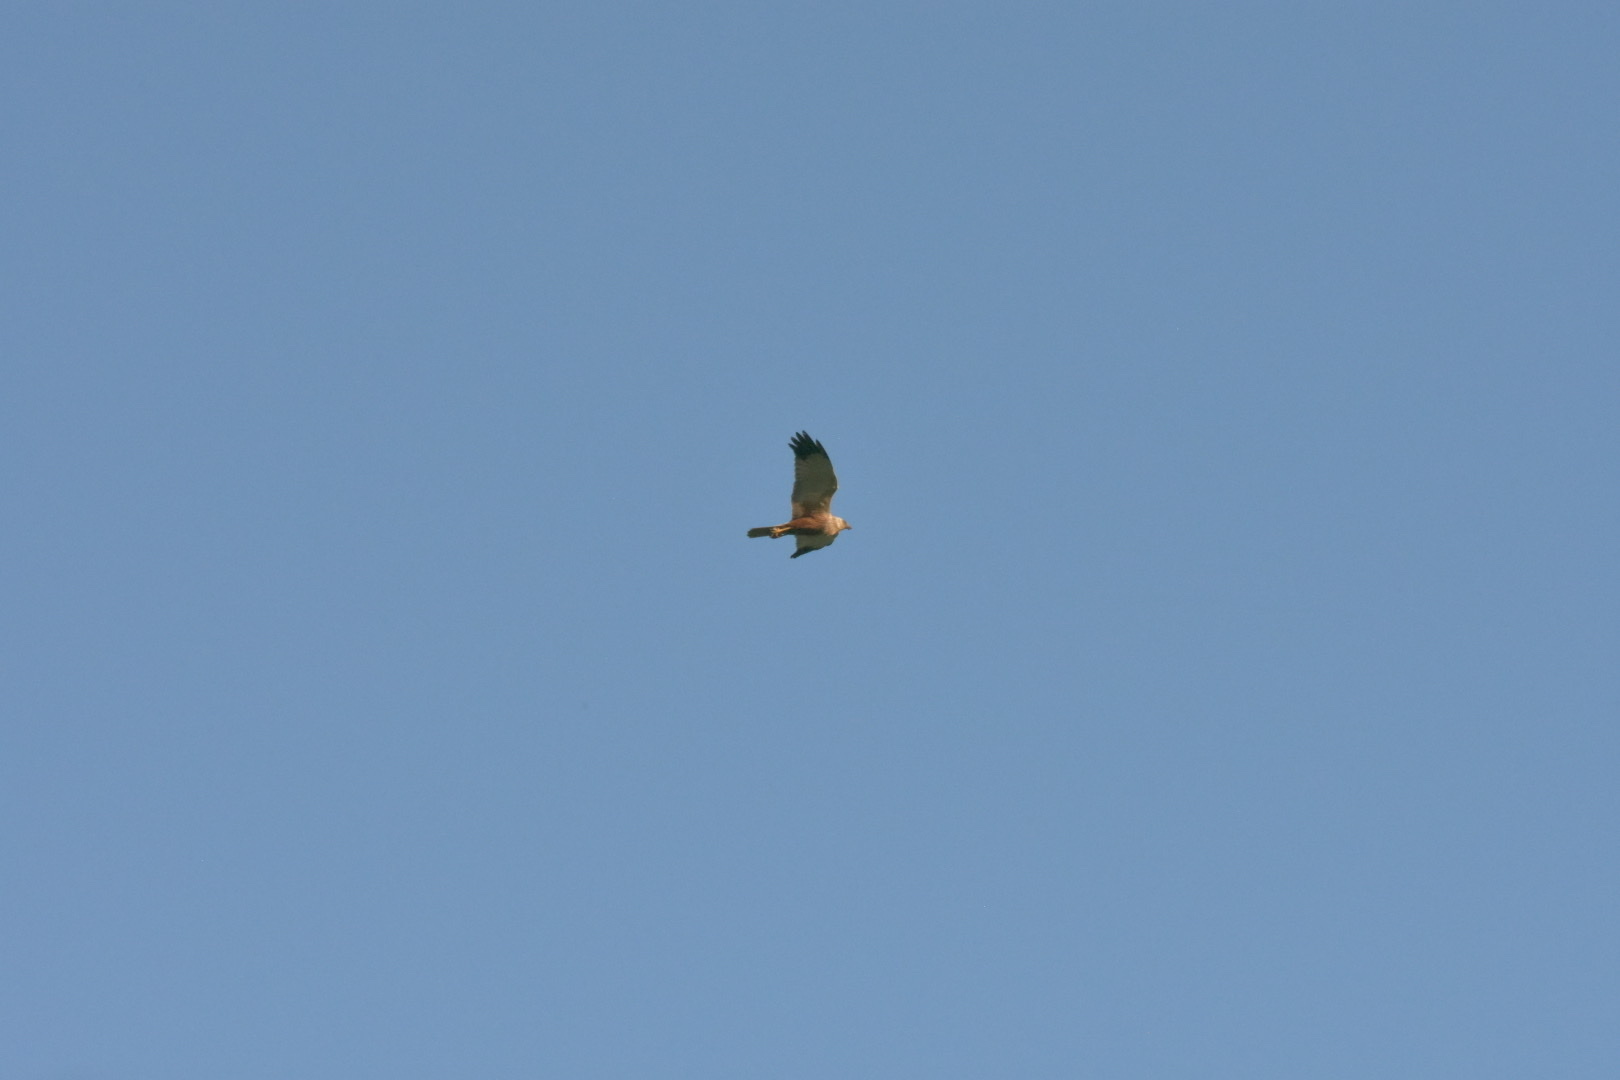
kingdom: Animalia
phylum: Chordata
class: Aves
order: Accipitriformes
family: Accipitridae
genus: Circus
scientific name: Circus aeruginosus
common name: Western marsh harrier
